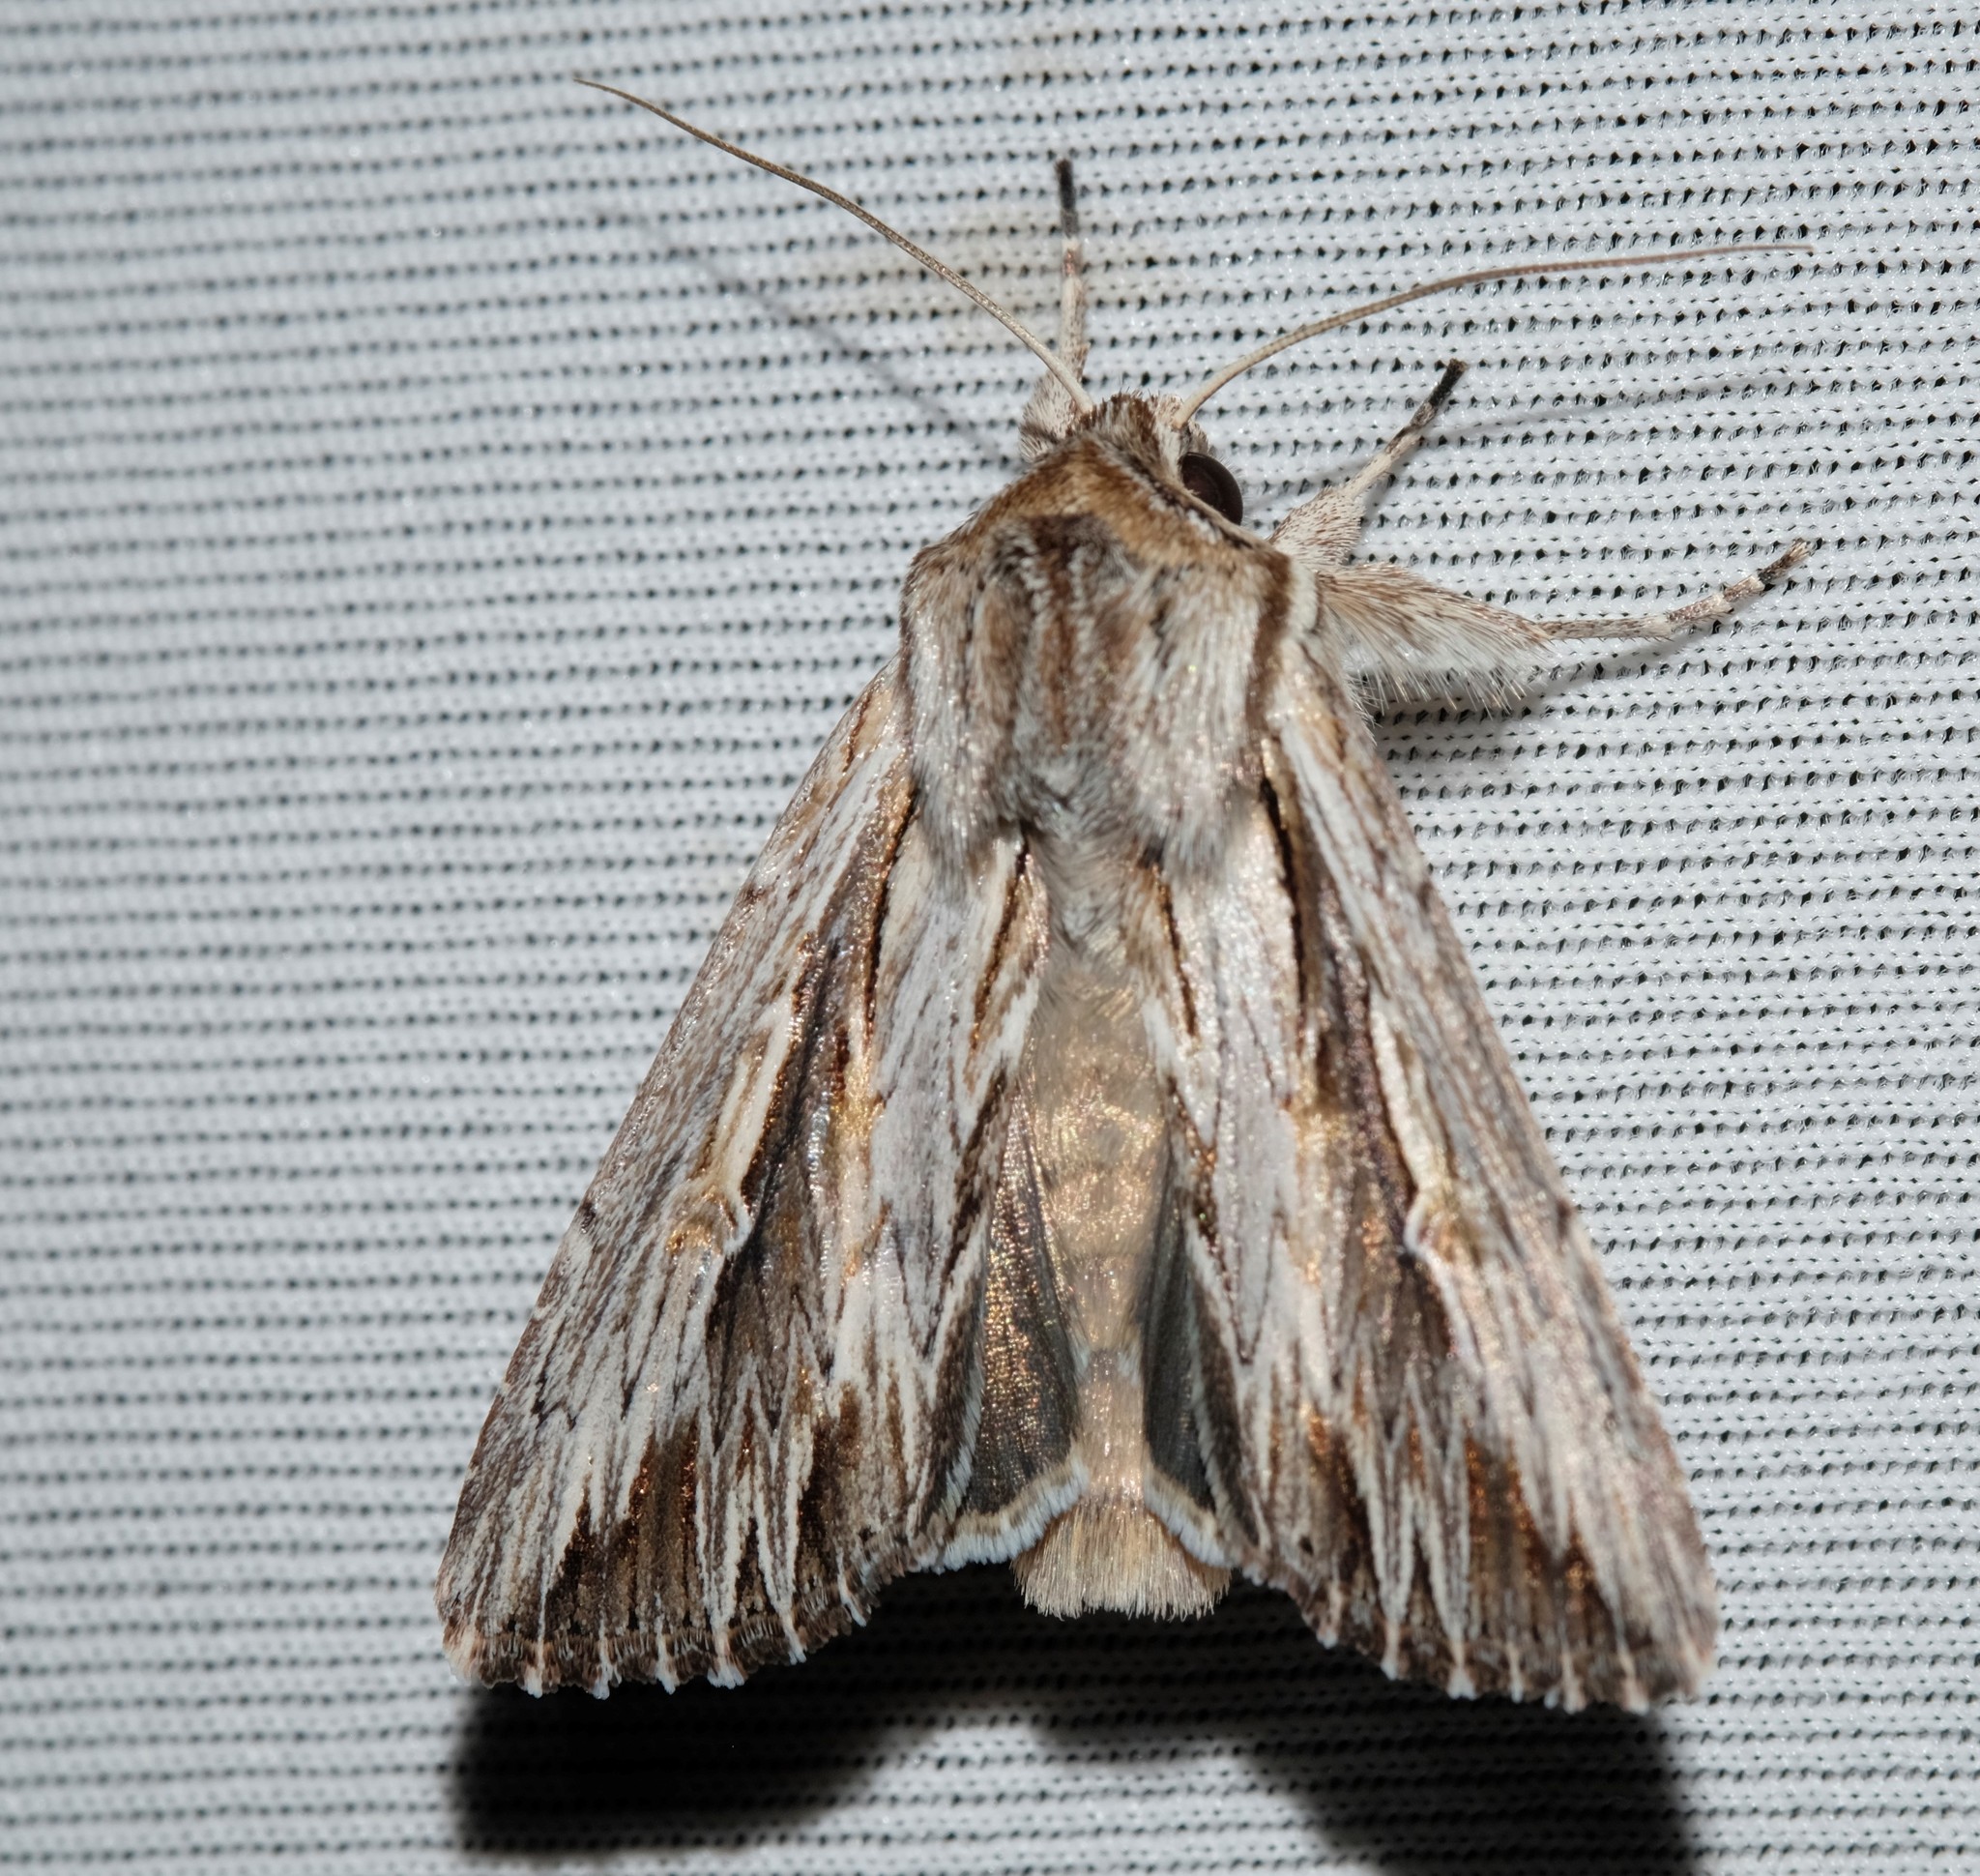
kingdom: Animalia
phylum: Arthropoda
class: Insecta
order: Lepidoptera
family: Noctuidae
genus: Persectania
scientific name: Persectania ewingii
